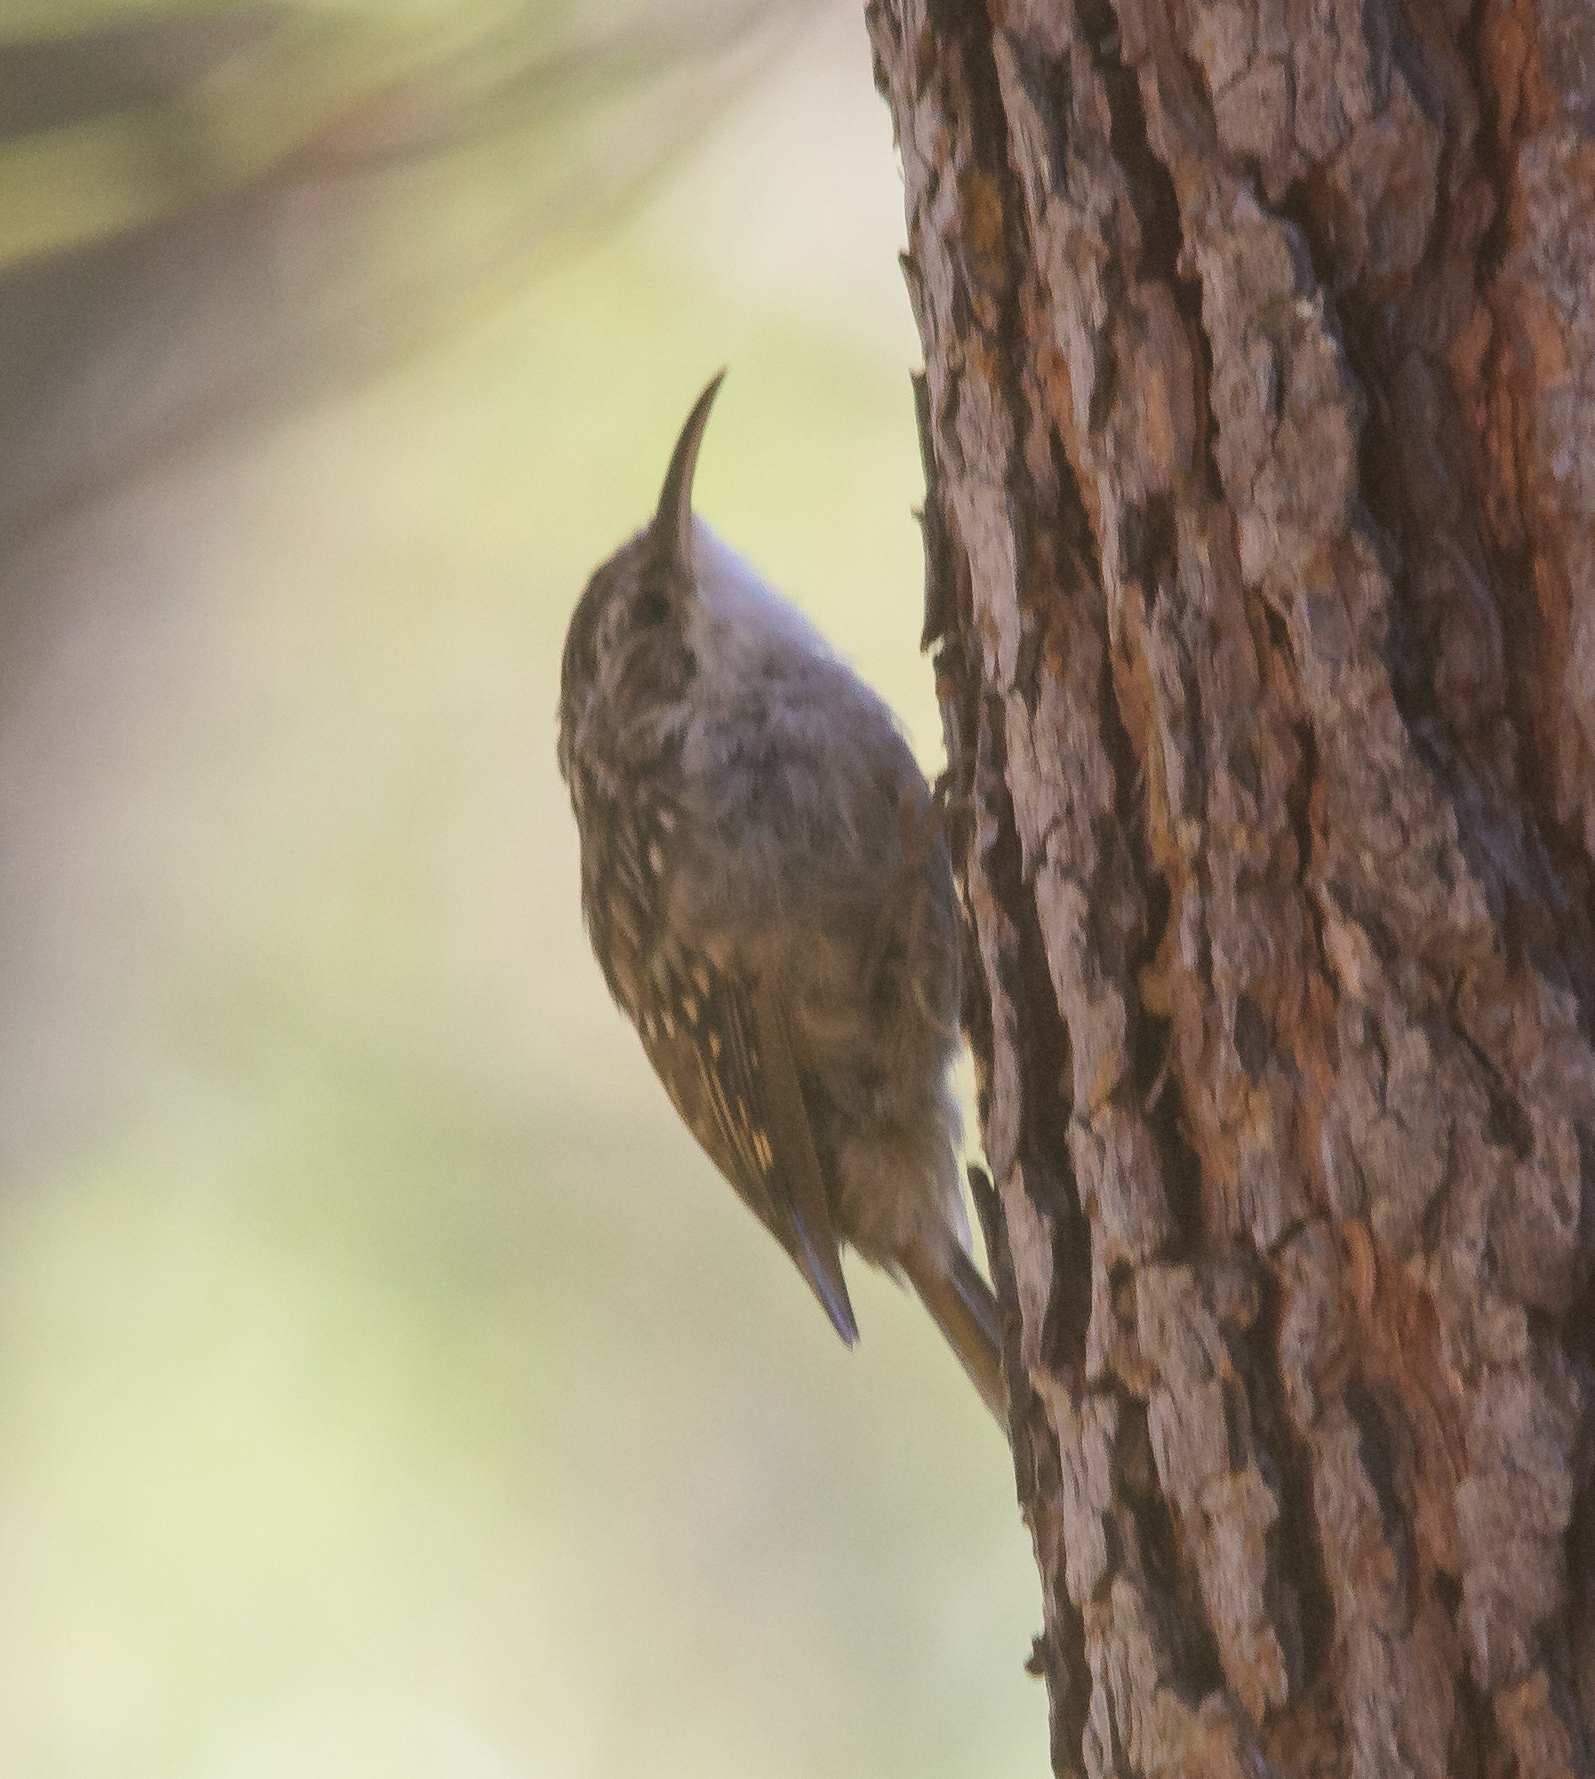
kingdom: Animalia
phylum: Chordata
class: Aves
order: Passeriformes
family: Certhiidae
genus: Certhia
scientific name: Certhia brachydactyla
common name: Short-toed treecreeper
